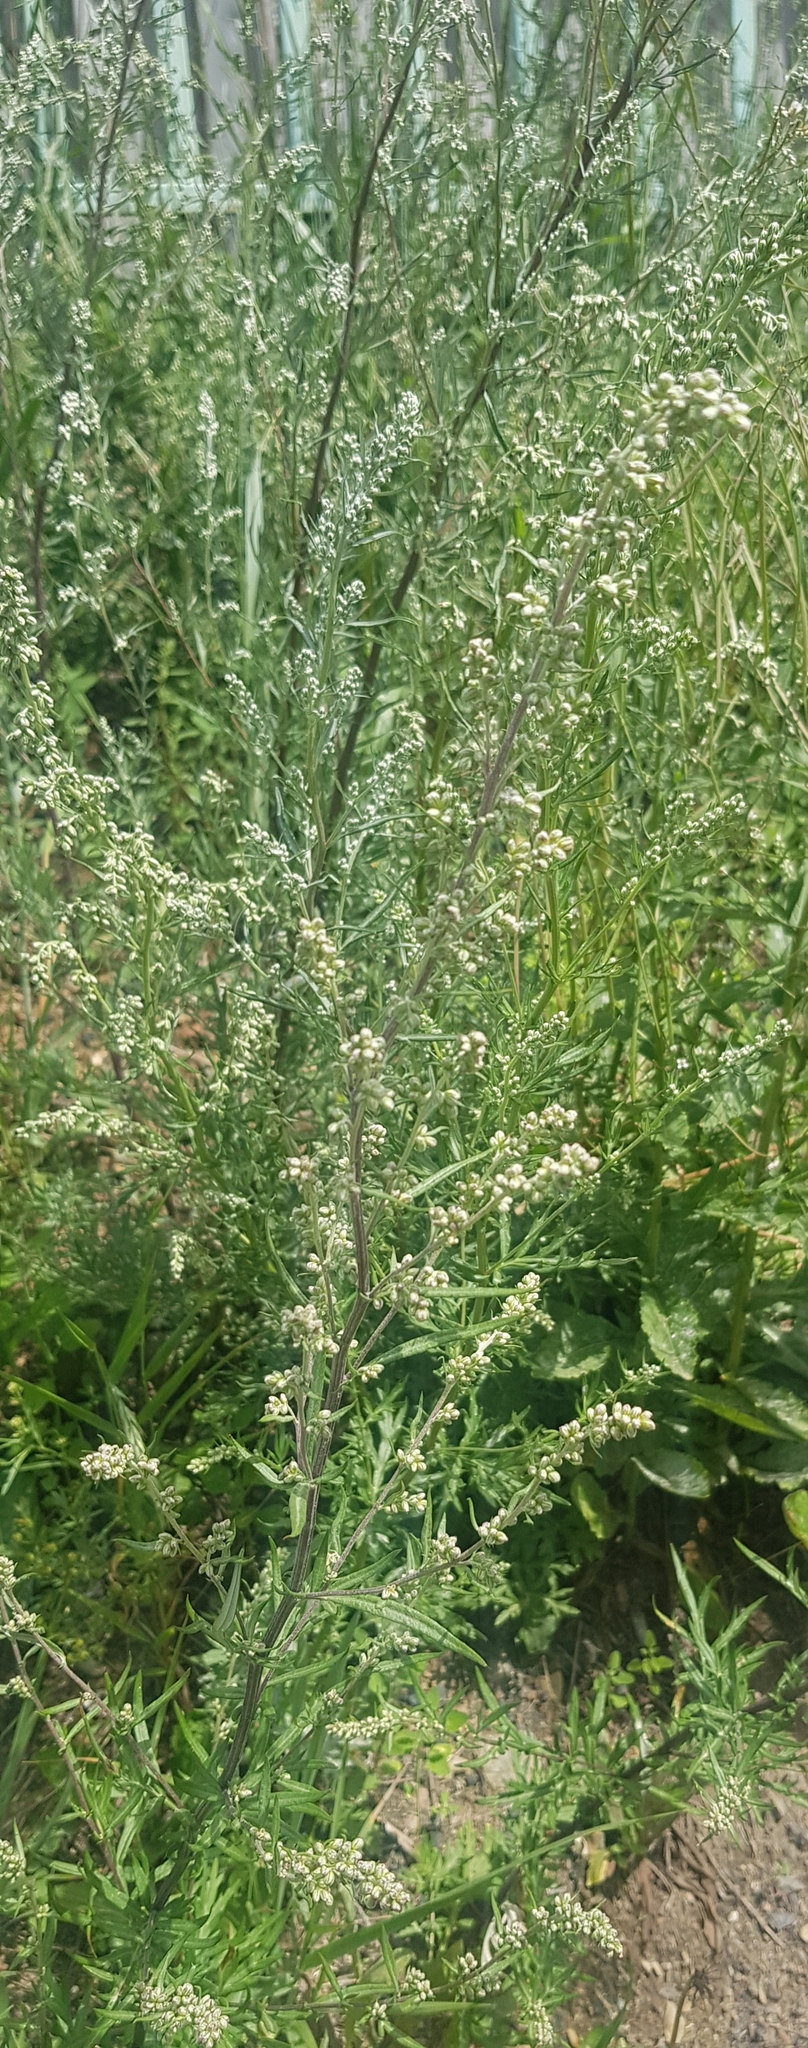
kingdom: Plantae
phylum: Tracheophyta
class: Magnoliopsida
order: Asterales
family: Asteraceae
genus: Artemisia
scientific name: Artemisia vulgaris
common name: Mugwort
